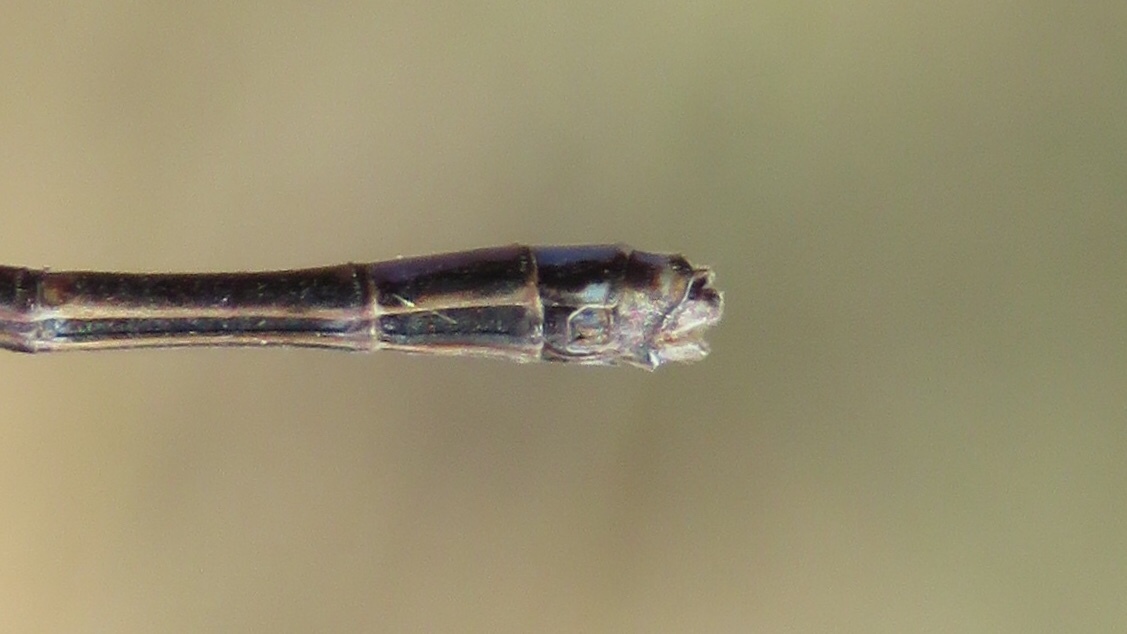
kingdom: Animalia
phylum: Arthropoda
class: Insecta
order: Odonata
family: Coenagrionidae
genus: Argia
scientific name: Argia fumipennis
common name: Variable dancer
